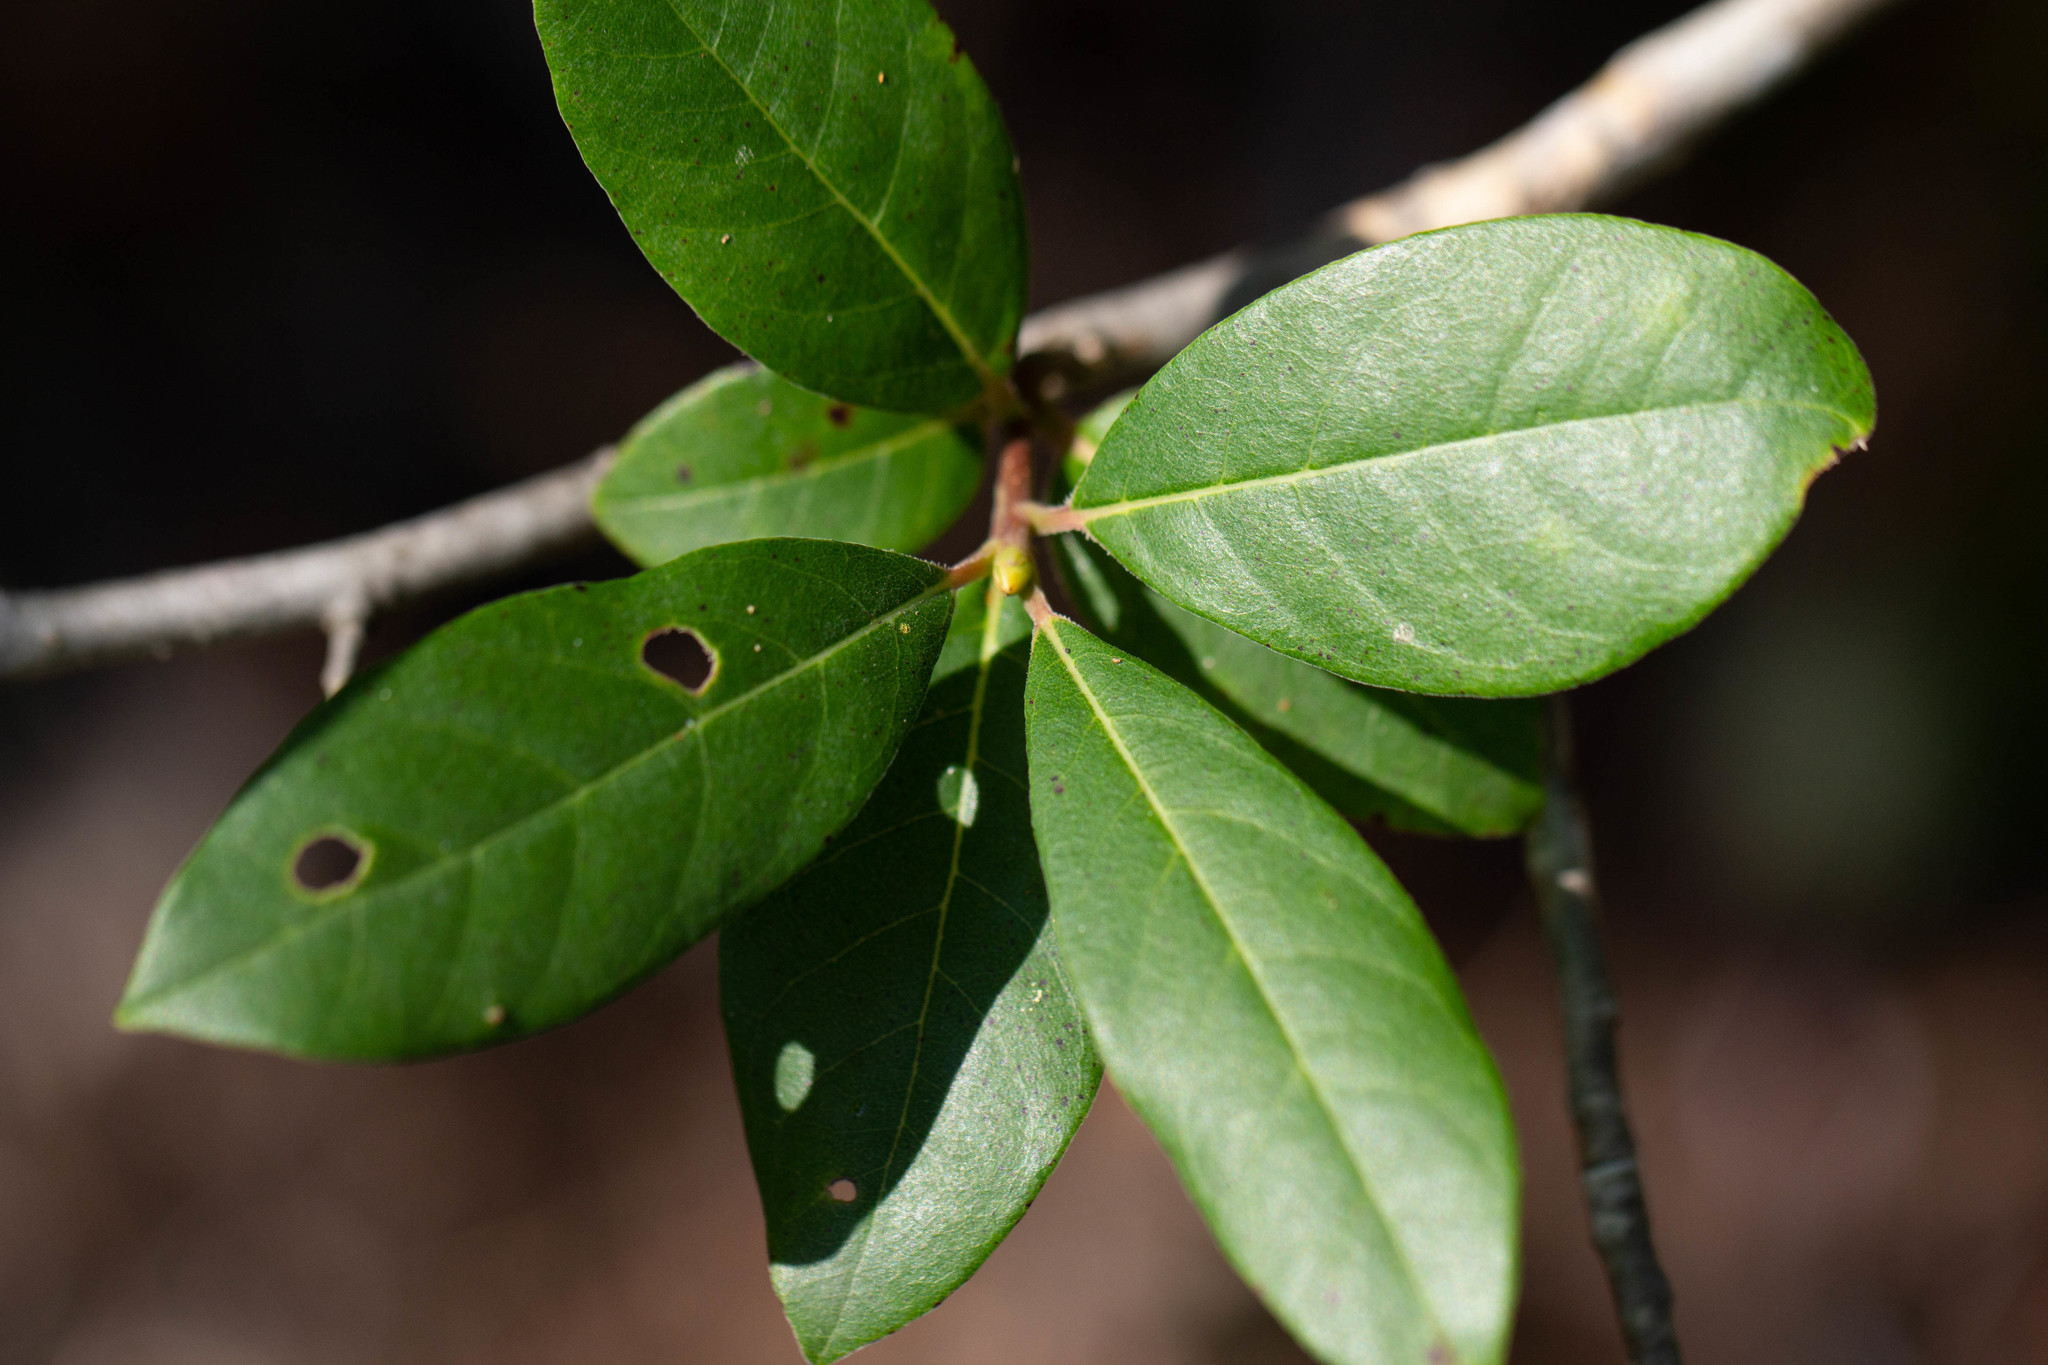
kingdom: Plantae
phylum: Tracheophyta
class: Magnoliopsida
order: Cornales
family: Nyssaceae
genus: Nyssa
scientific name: Nyssa biflora
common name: Swamp blackgum
